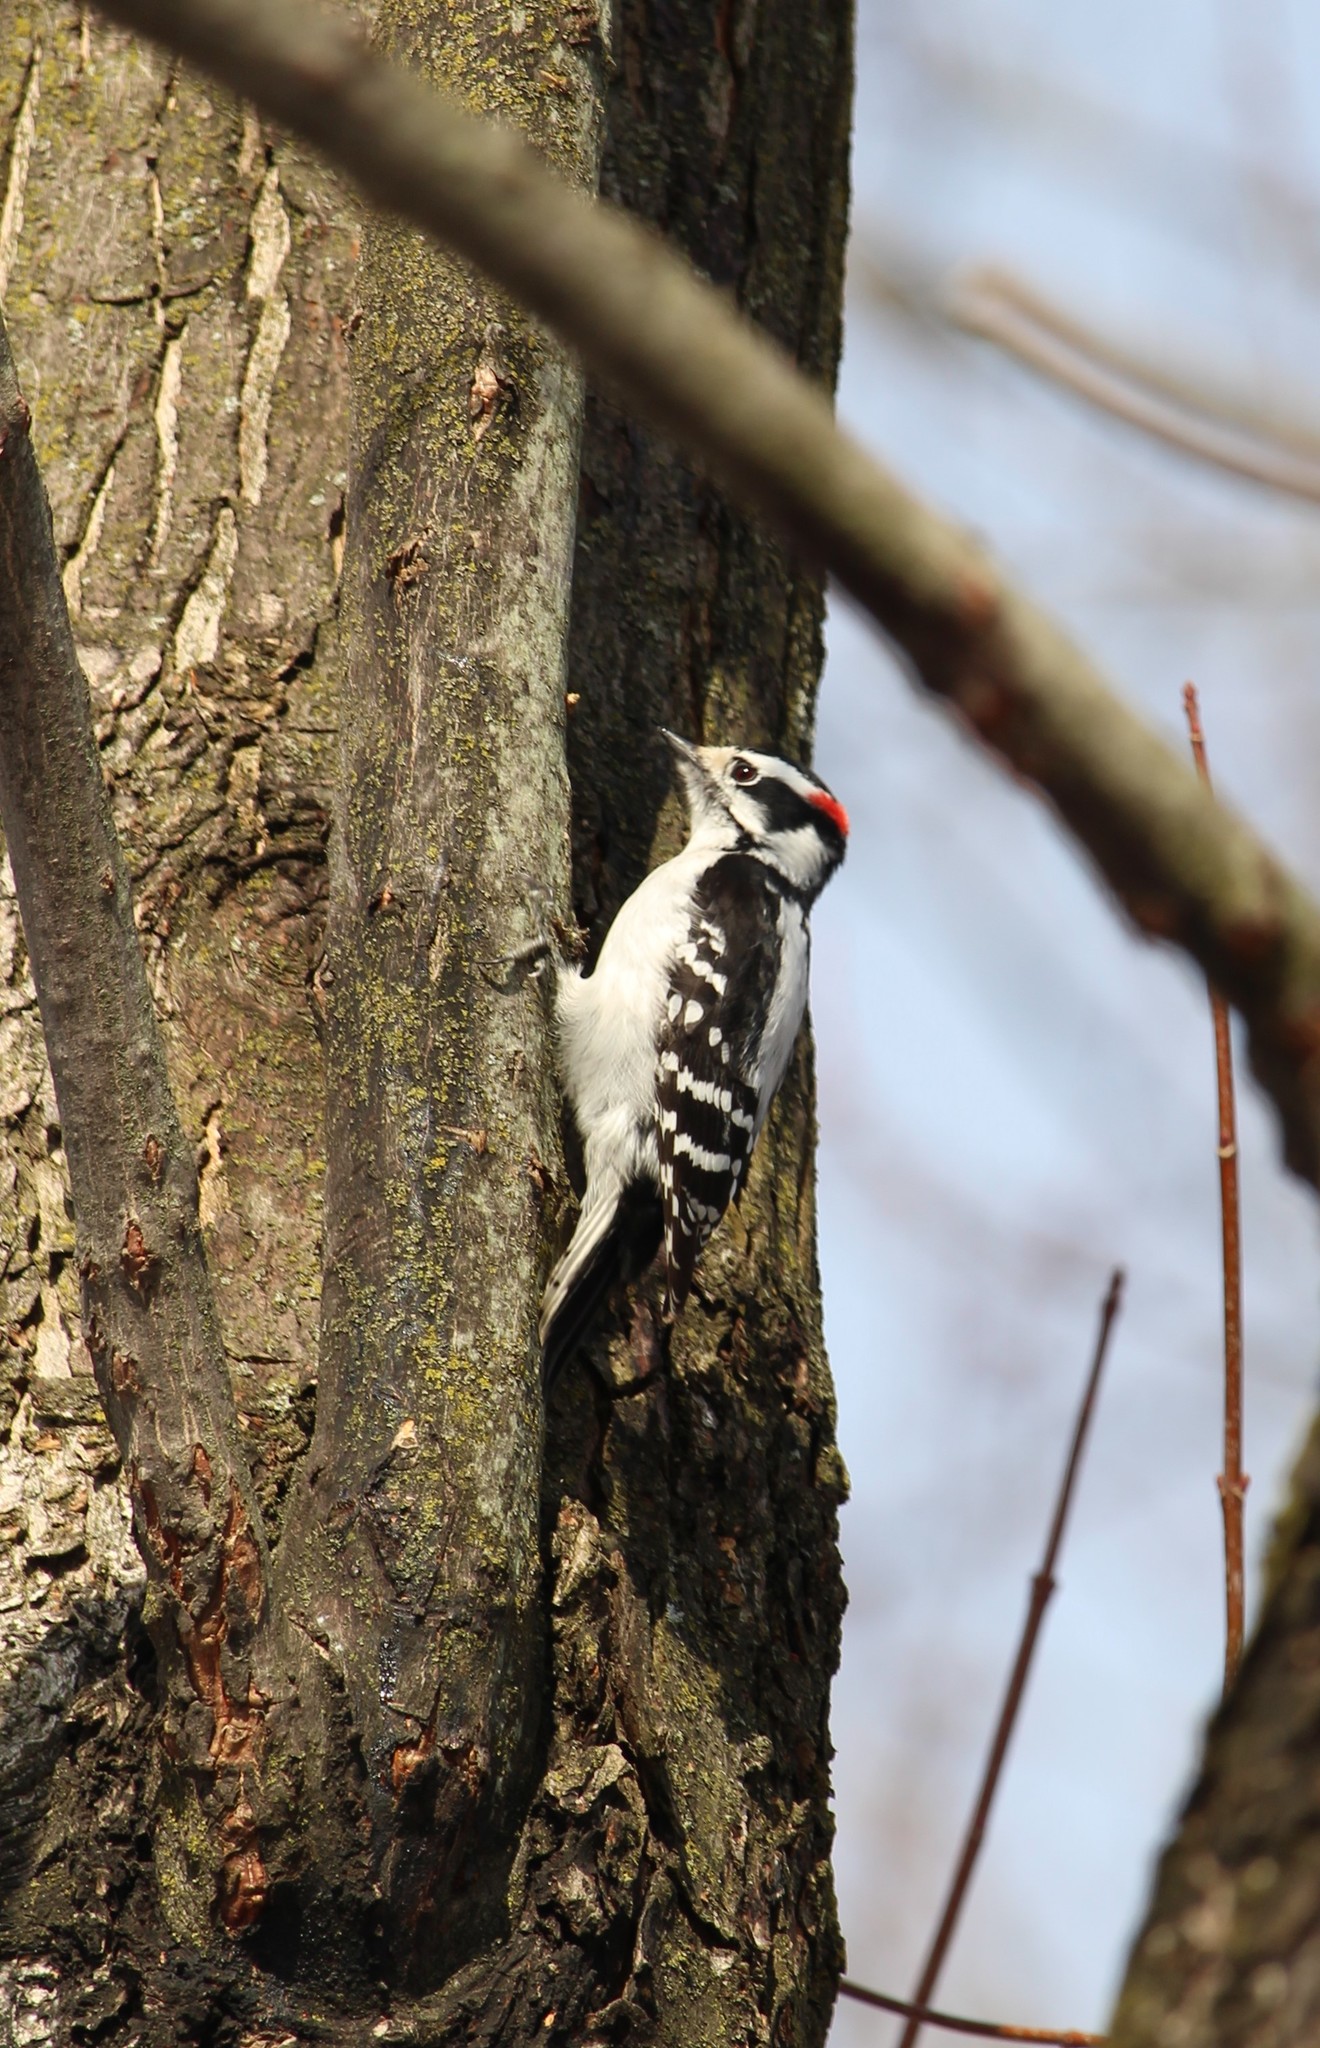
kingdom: Animalia
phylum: Chordata
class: Aves
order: Piciformes
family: Picidae
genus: Dryobates
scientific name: Dryobates pubescens
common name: Downy woodpecker
